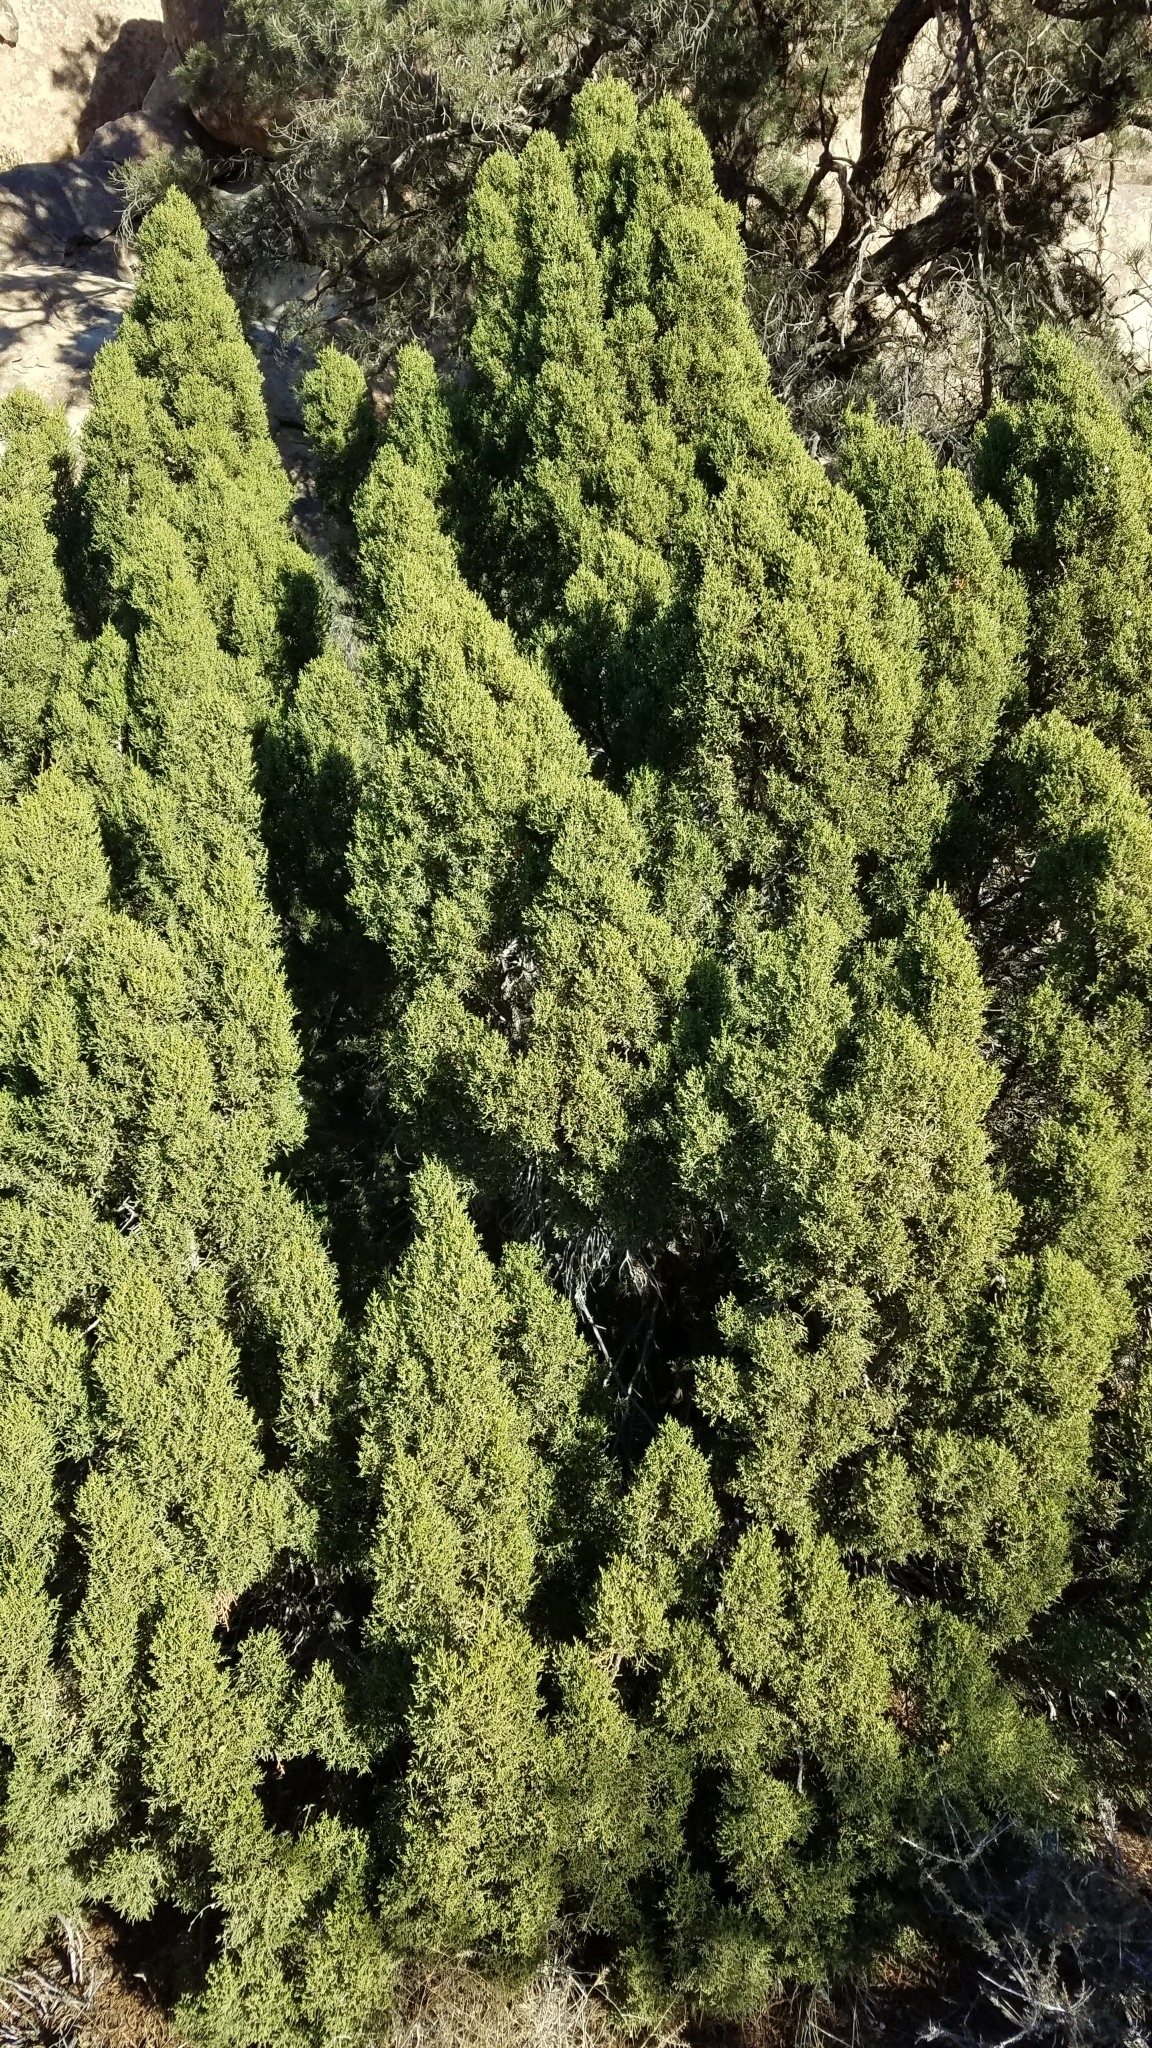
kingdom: Plantae
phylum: Tracheophyta
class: Pinopsida
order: Pinales
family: Cupressaceae
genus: Juniperus
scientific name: Juniperus californica
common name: California juniper
